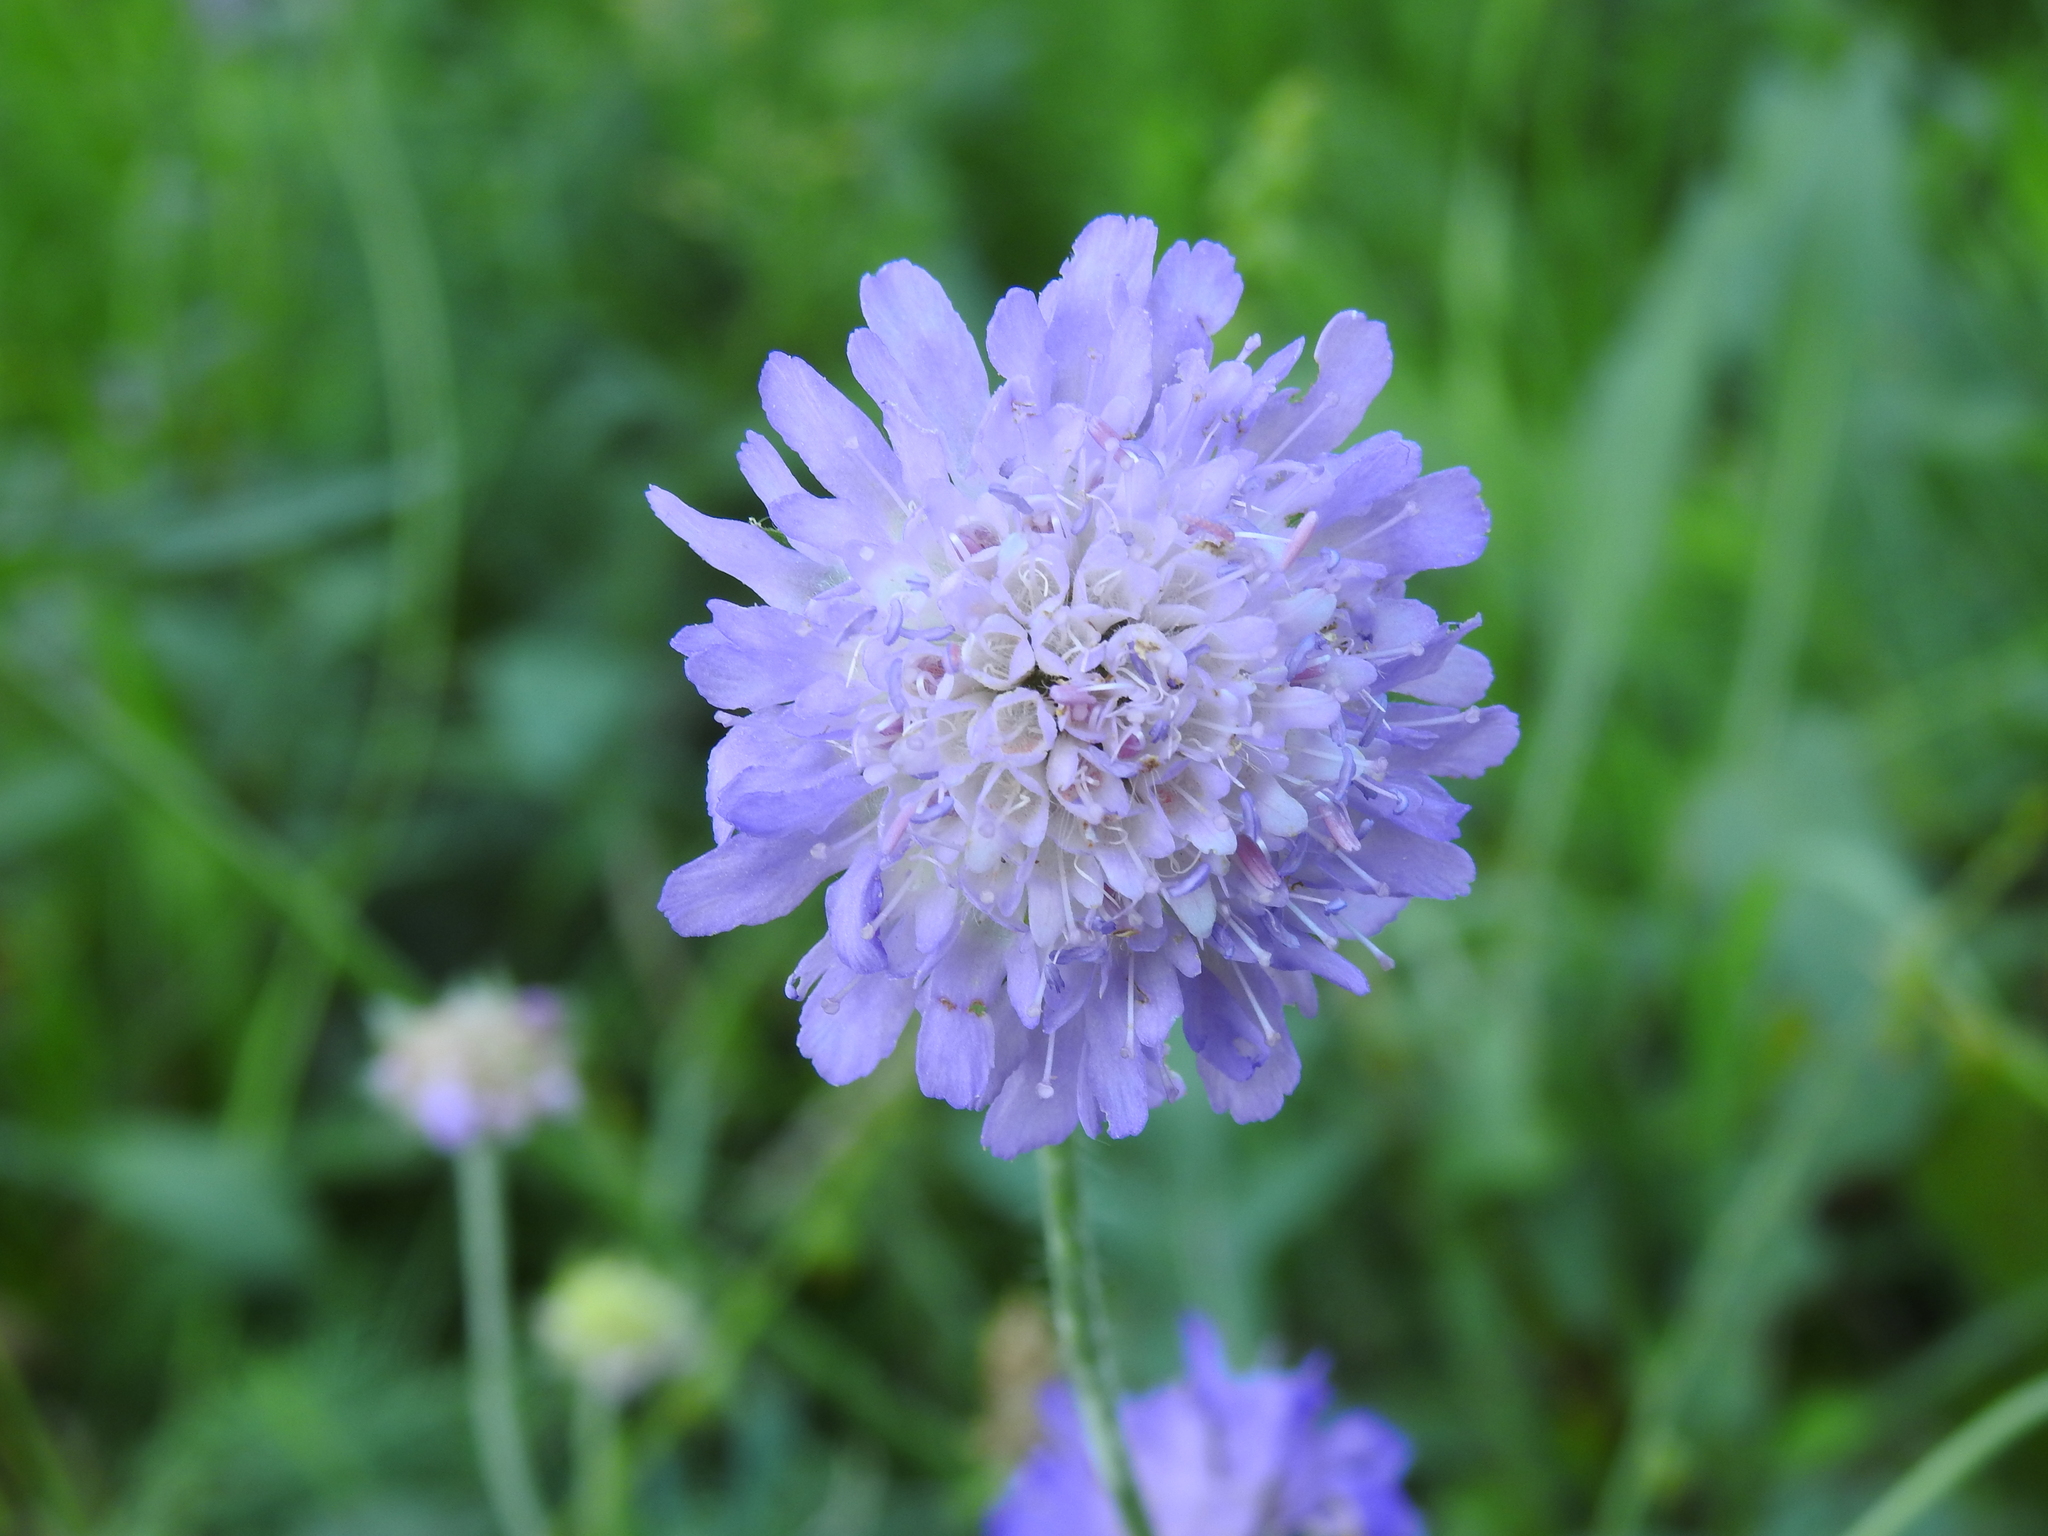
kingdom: Plantae
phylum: Tracheophyta
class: Magnoliopsida
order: Dipsacales
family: Caprifoliaceae
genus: Knautia
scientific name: Knautia arvensis
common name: Field scabiosa
